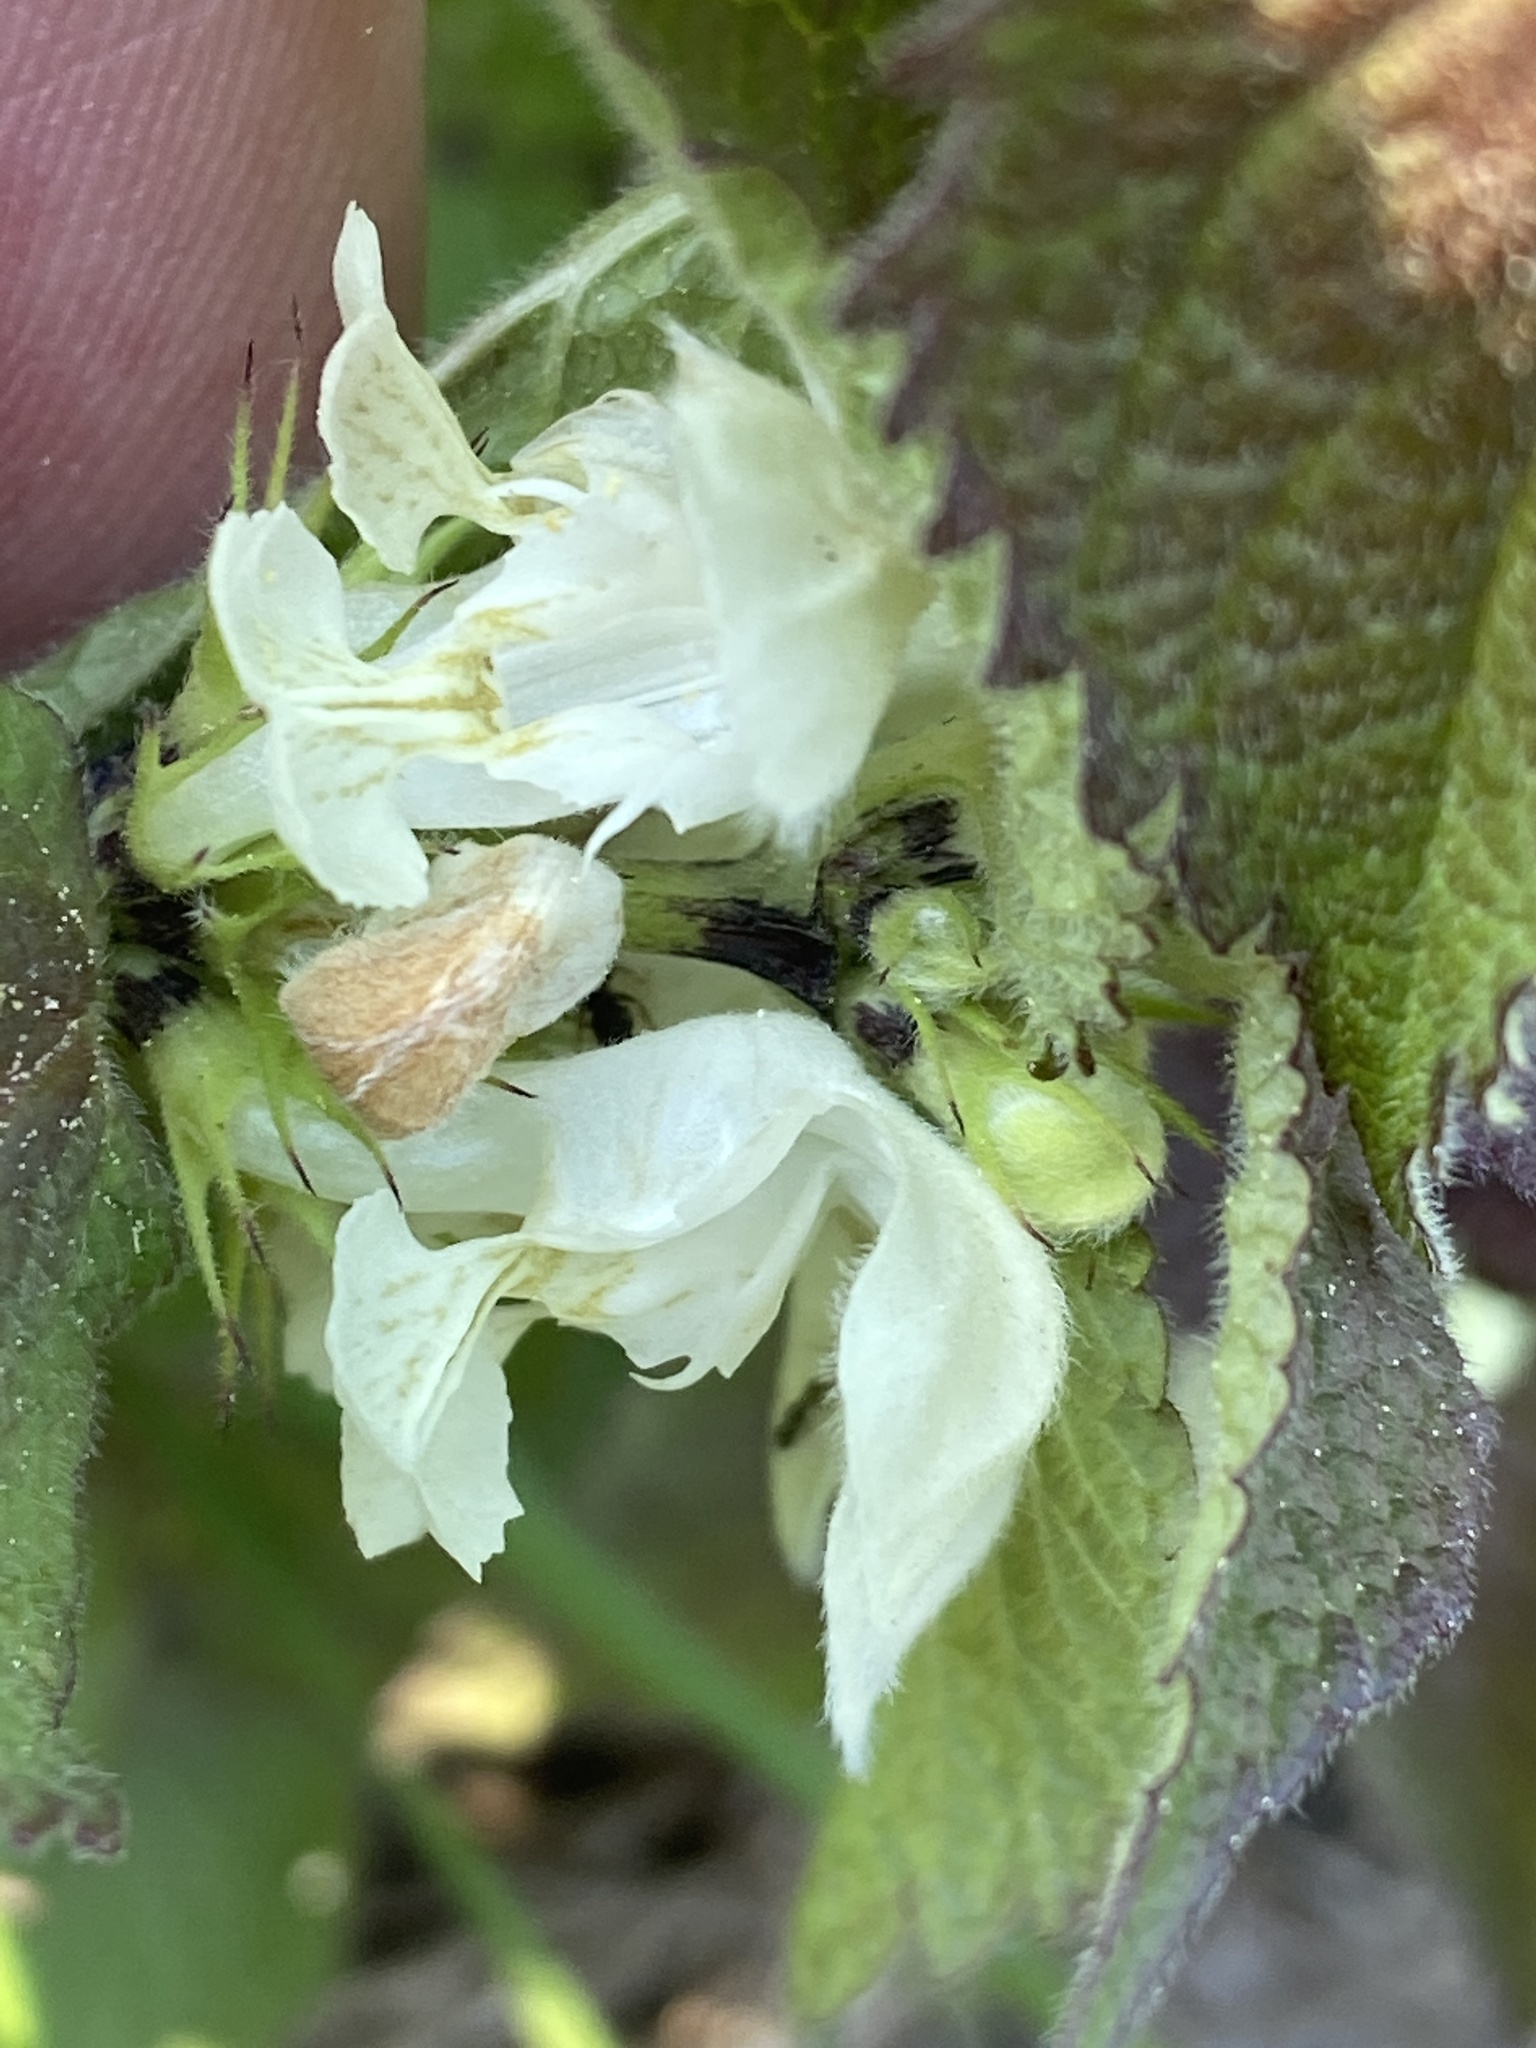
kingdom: Plantae
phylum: Tracheophyta
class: Magnoliopsida
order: Lamiales
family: Lamiaceae
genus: Lamium
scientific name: Lamium album
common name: White dead-nettle
